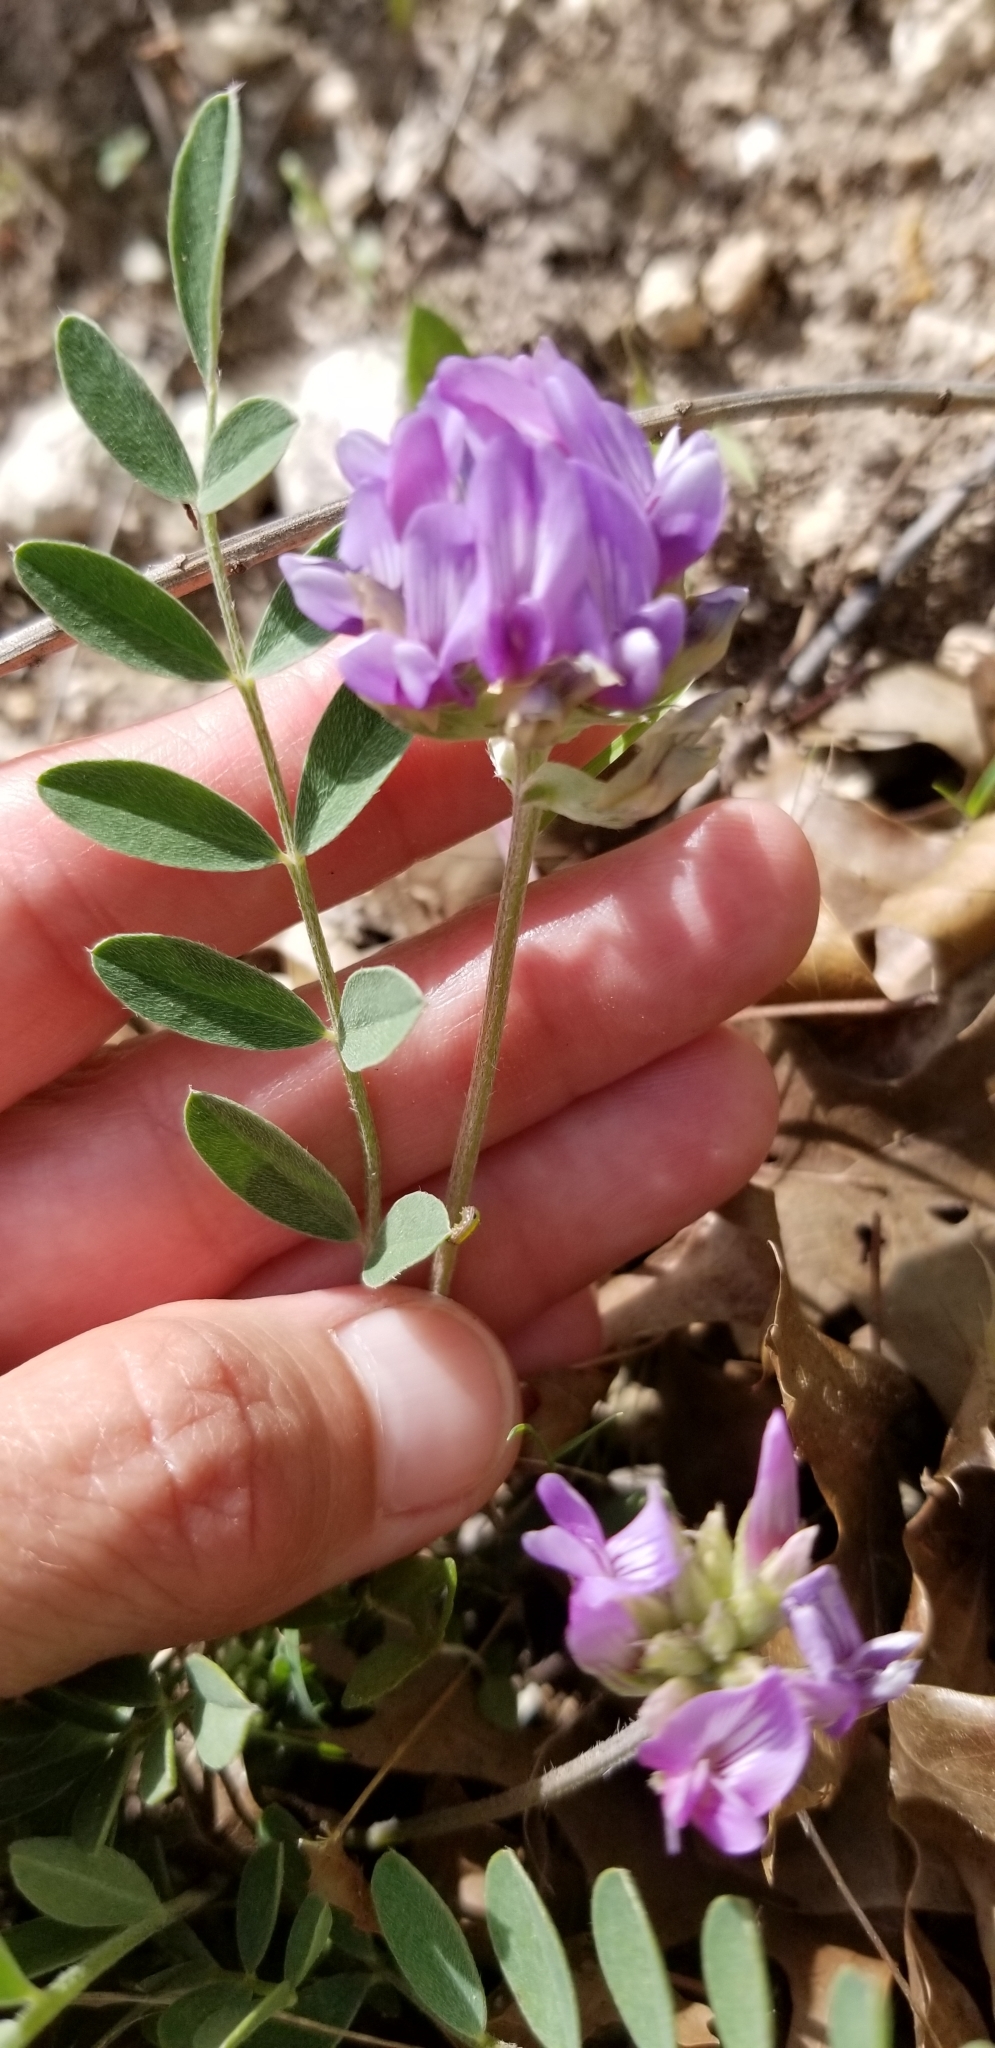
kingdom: Plantae
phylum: Tracheophyta
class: Magnoliopsida
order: Fabales
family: Fabaceae
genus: Astragalus
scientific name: Astragalus lotiflorus
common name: Lotus milk-vetch
